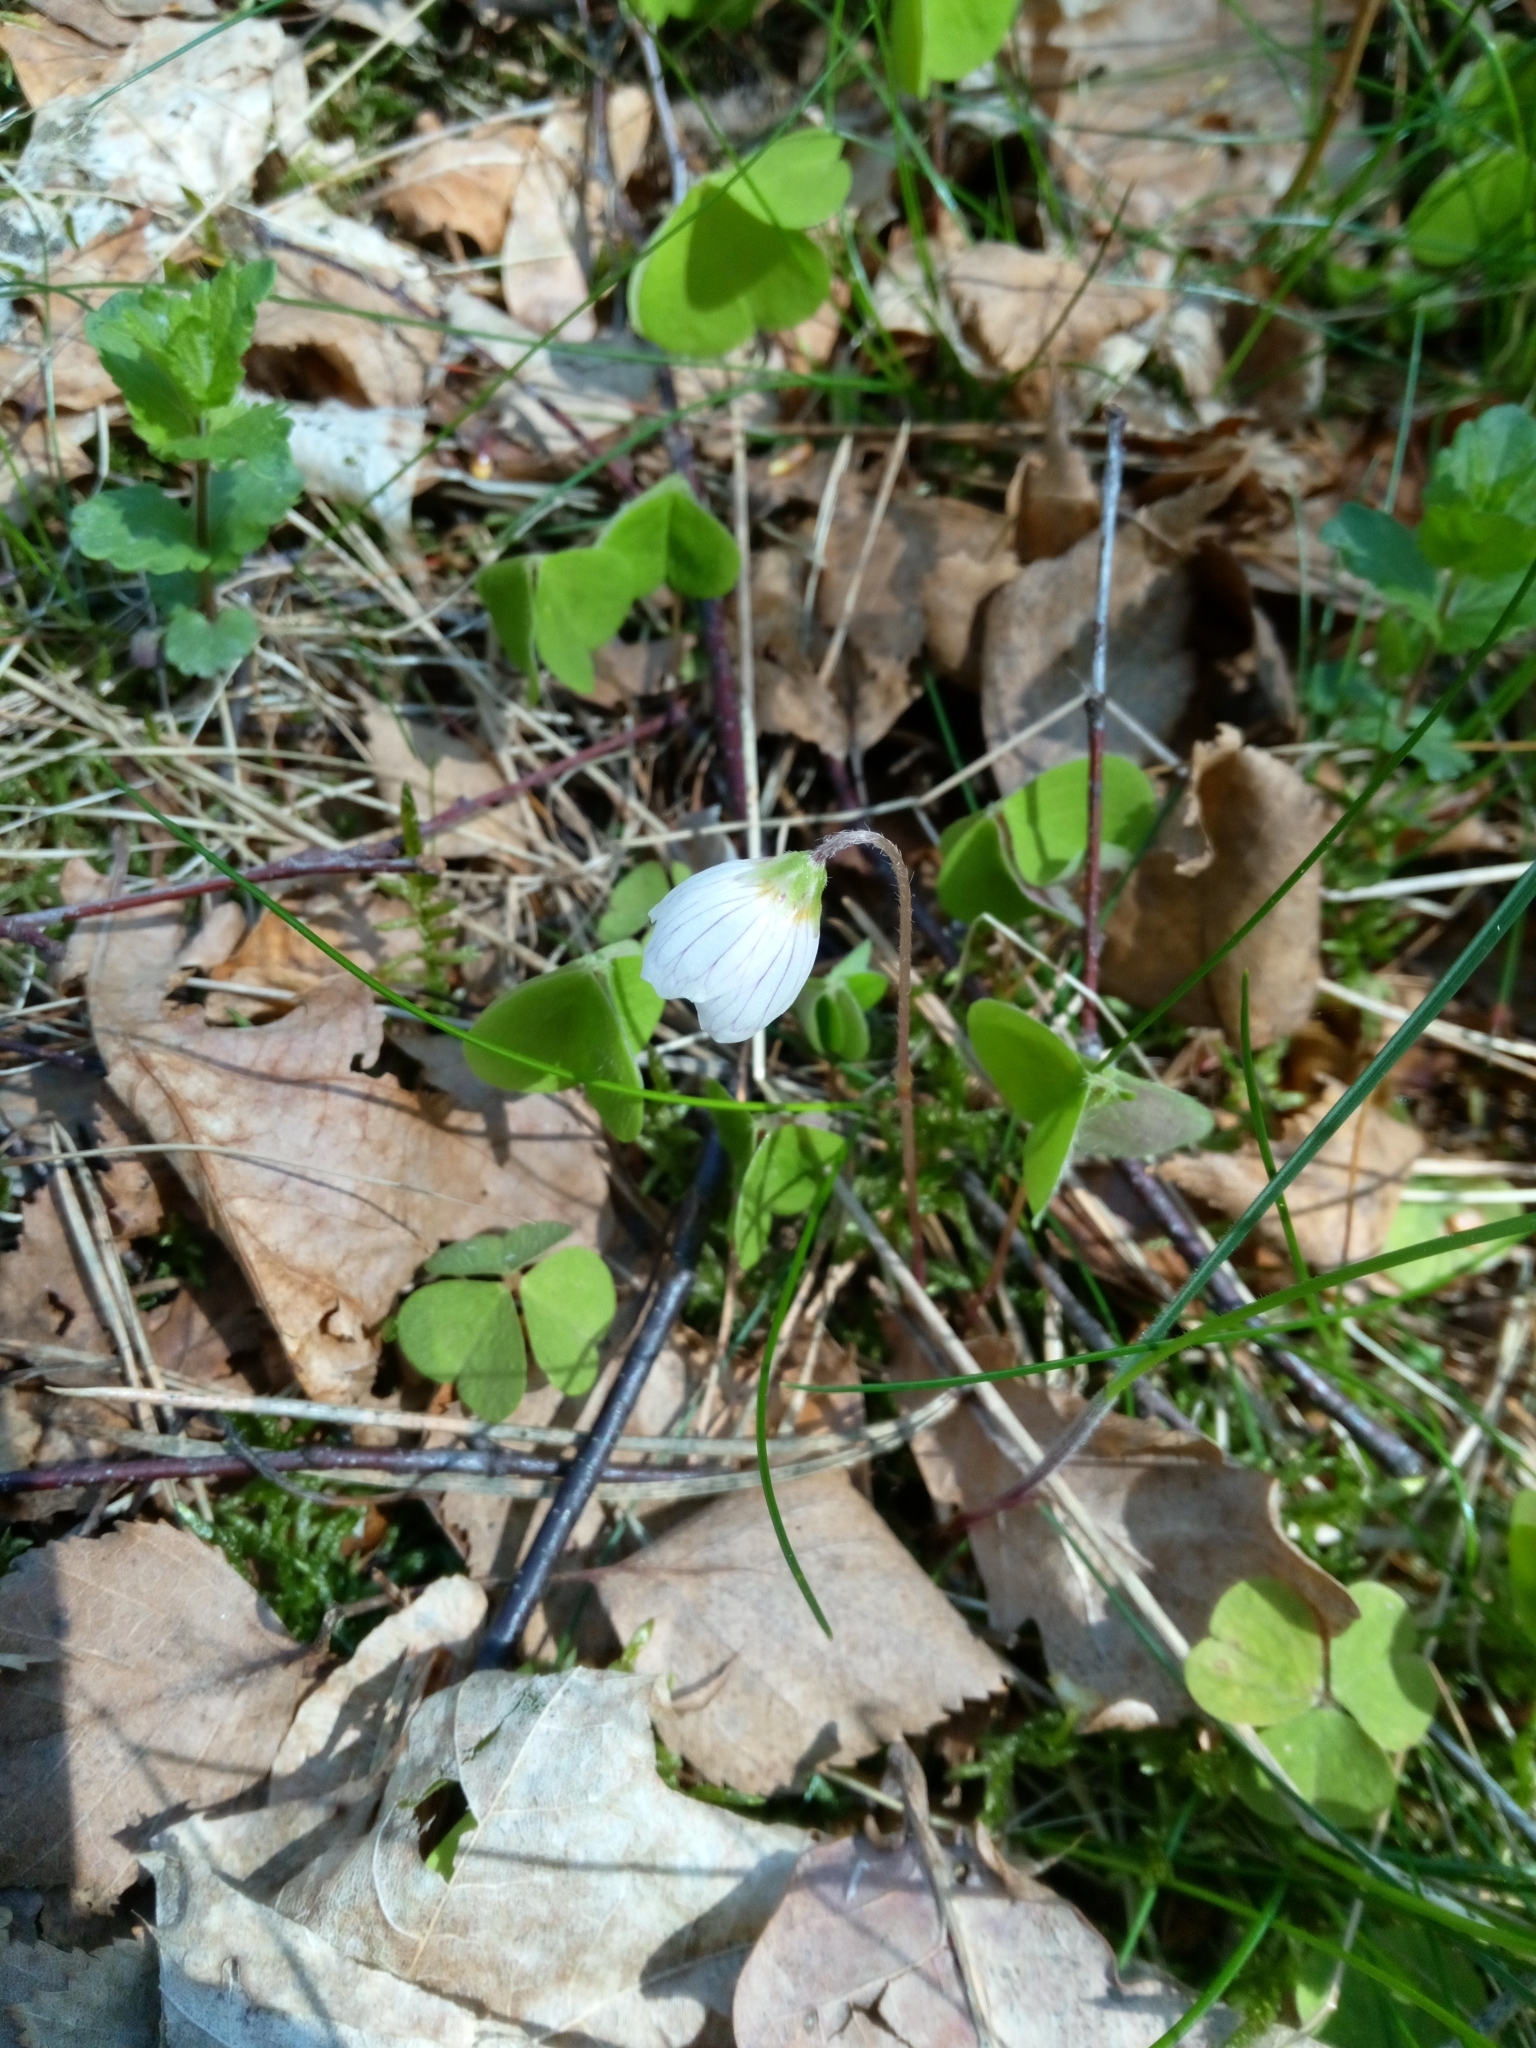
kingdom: Plantae
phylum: Tracheophyta
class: Magnoliopsida
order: Oxalidales
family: Oxalidaceae
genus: Oxalis
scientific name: Oxalis acetosella
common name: Wood-sorrel
